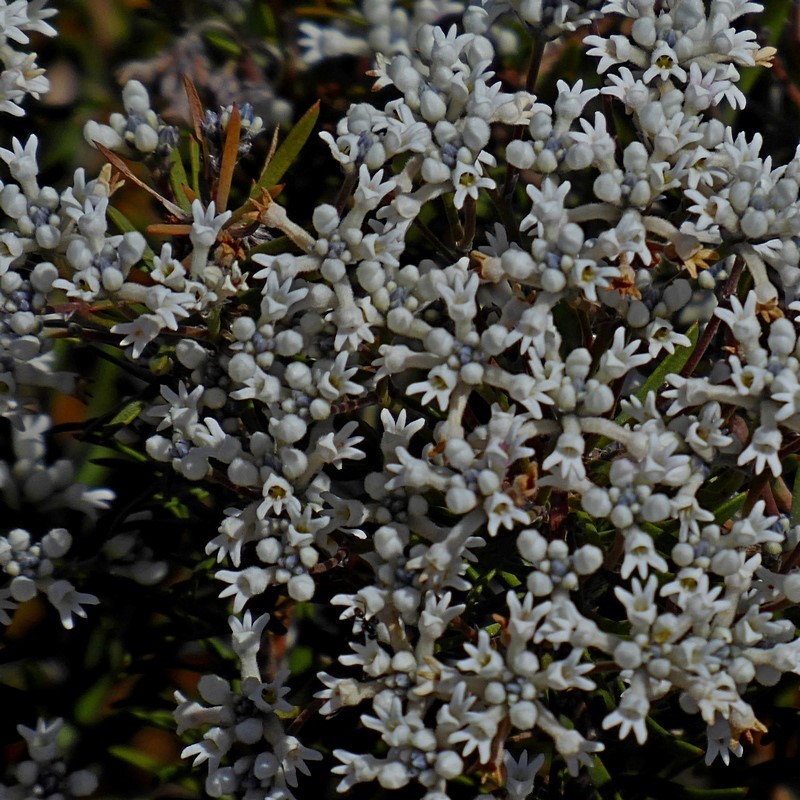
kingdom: Plantae
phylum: Tracheophyta
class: Magnoliopsida
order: Proteales
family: Proteaceae
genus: Conospermum
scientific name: Conospermum taxifolium
